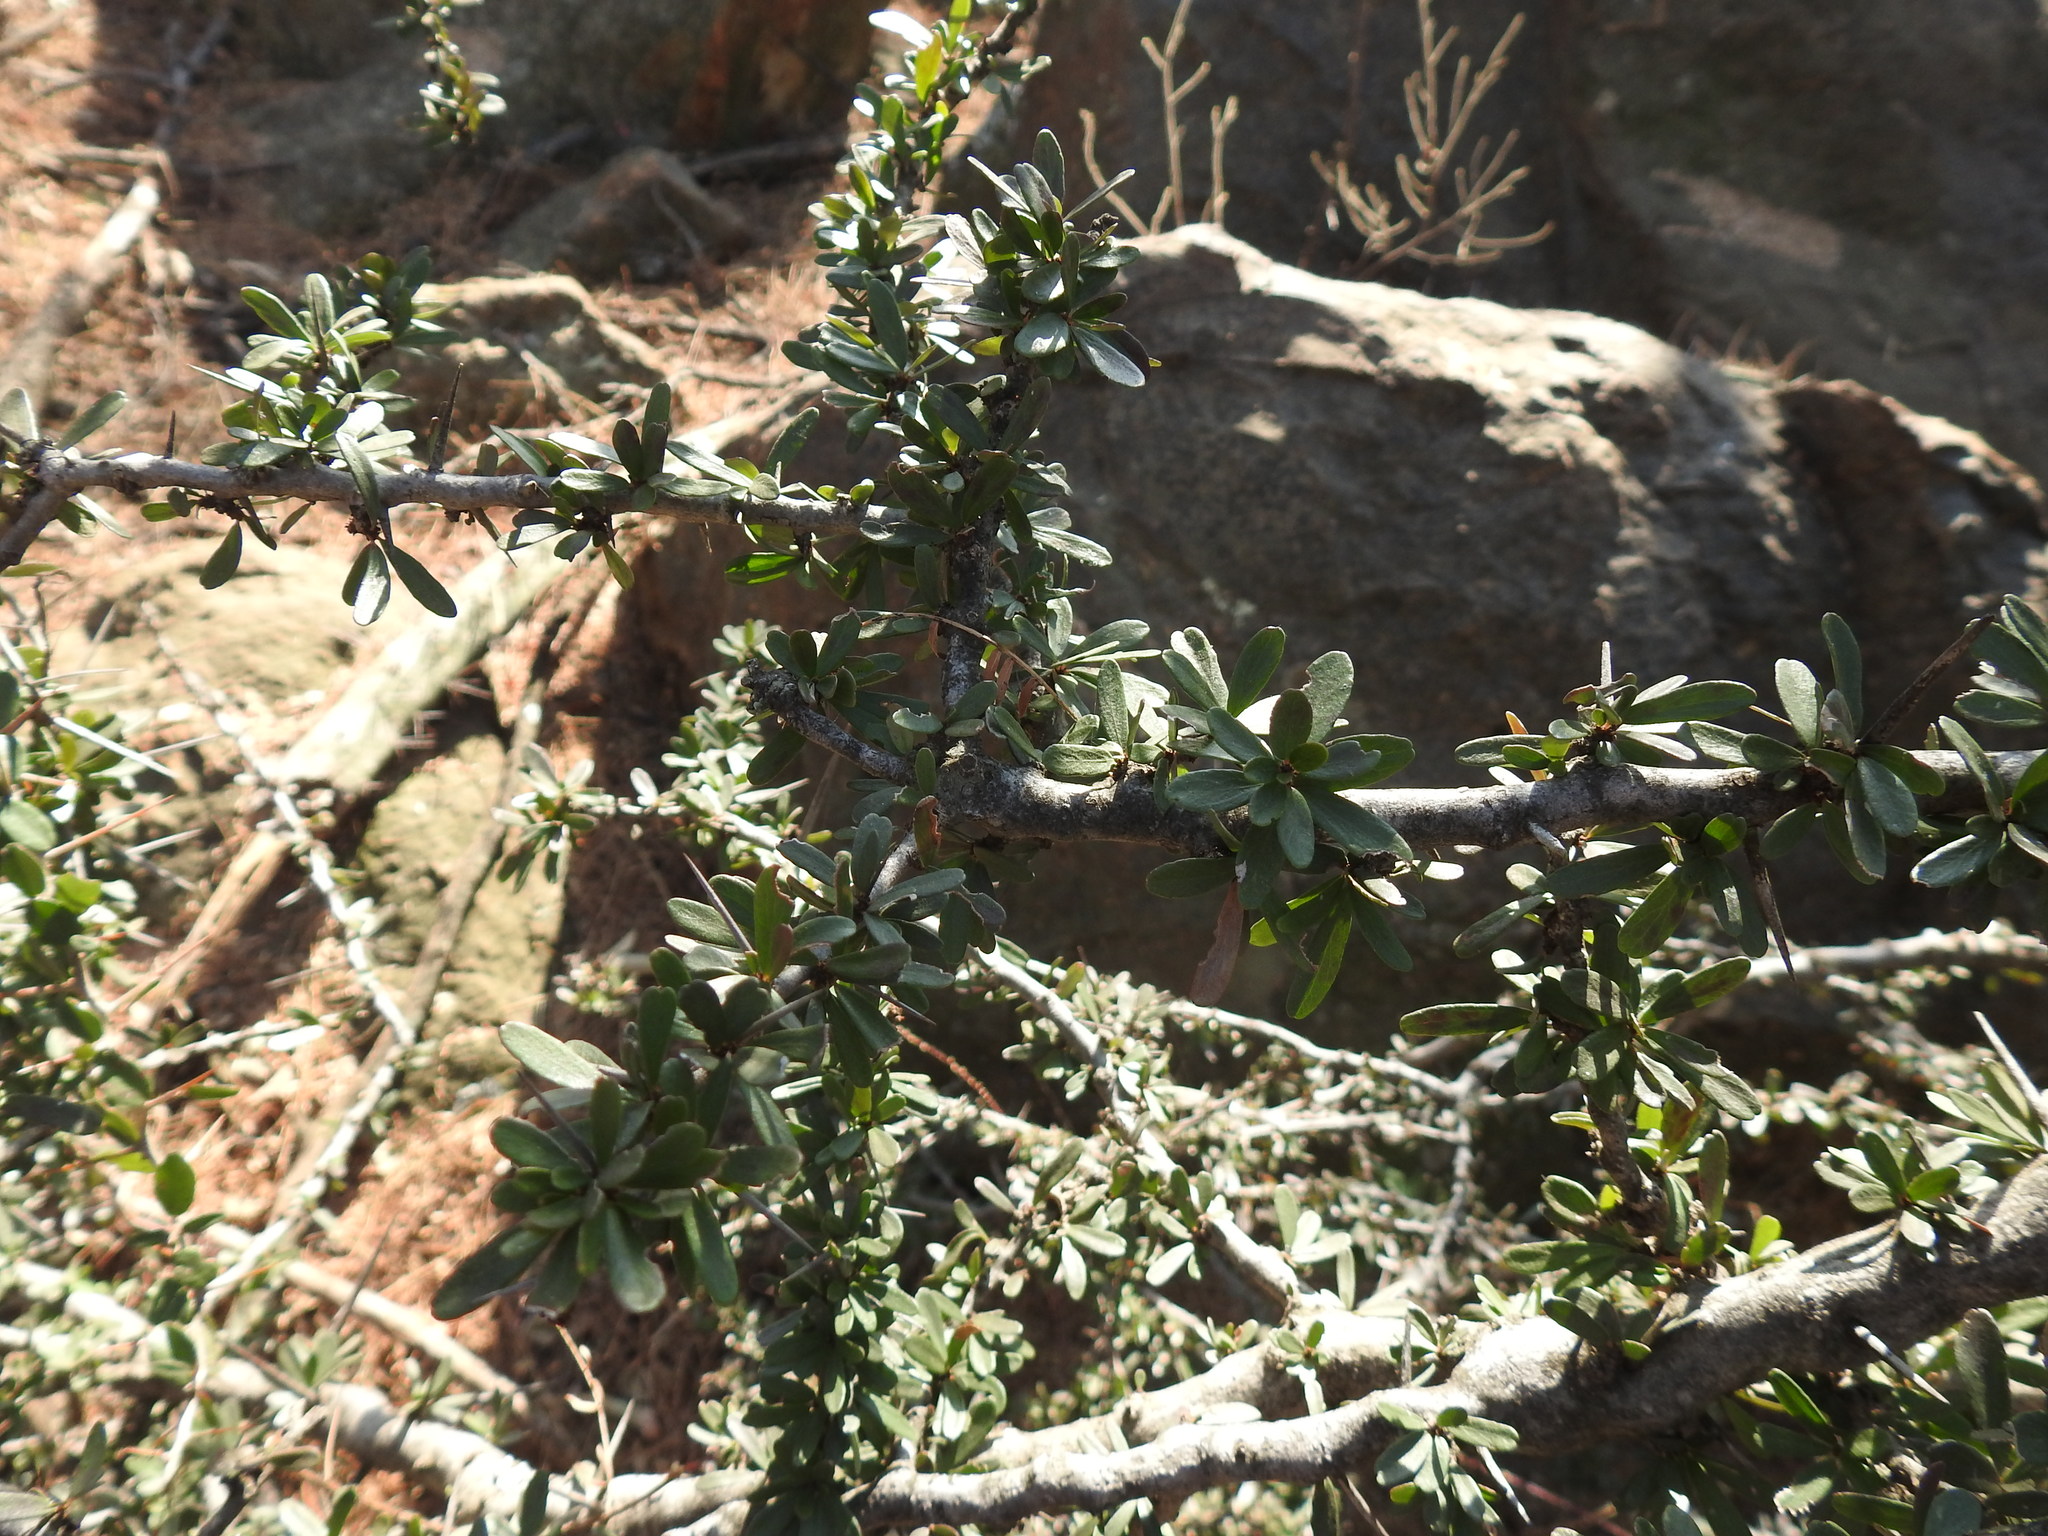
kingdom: Plantae
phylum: Tracheophyta
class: Magnoliopsida
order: Celastrales
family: Celastraceae
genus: Gymnosporia
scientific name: Gymnosporia polyacantha
